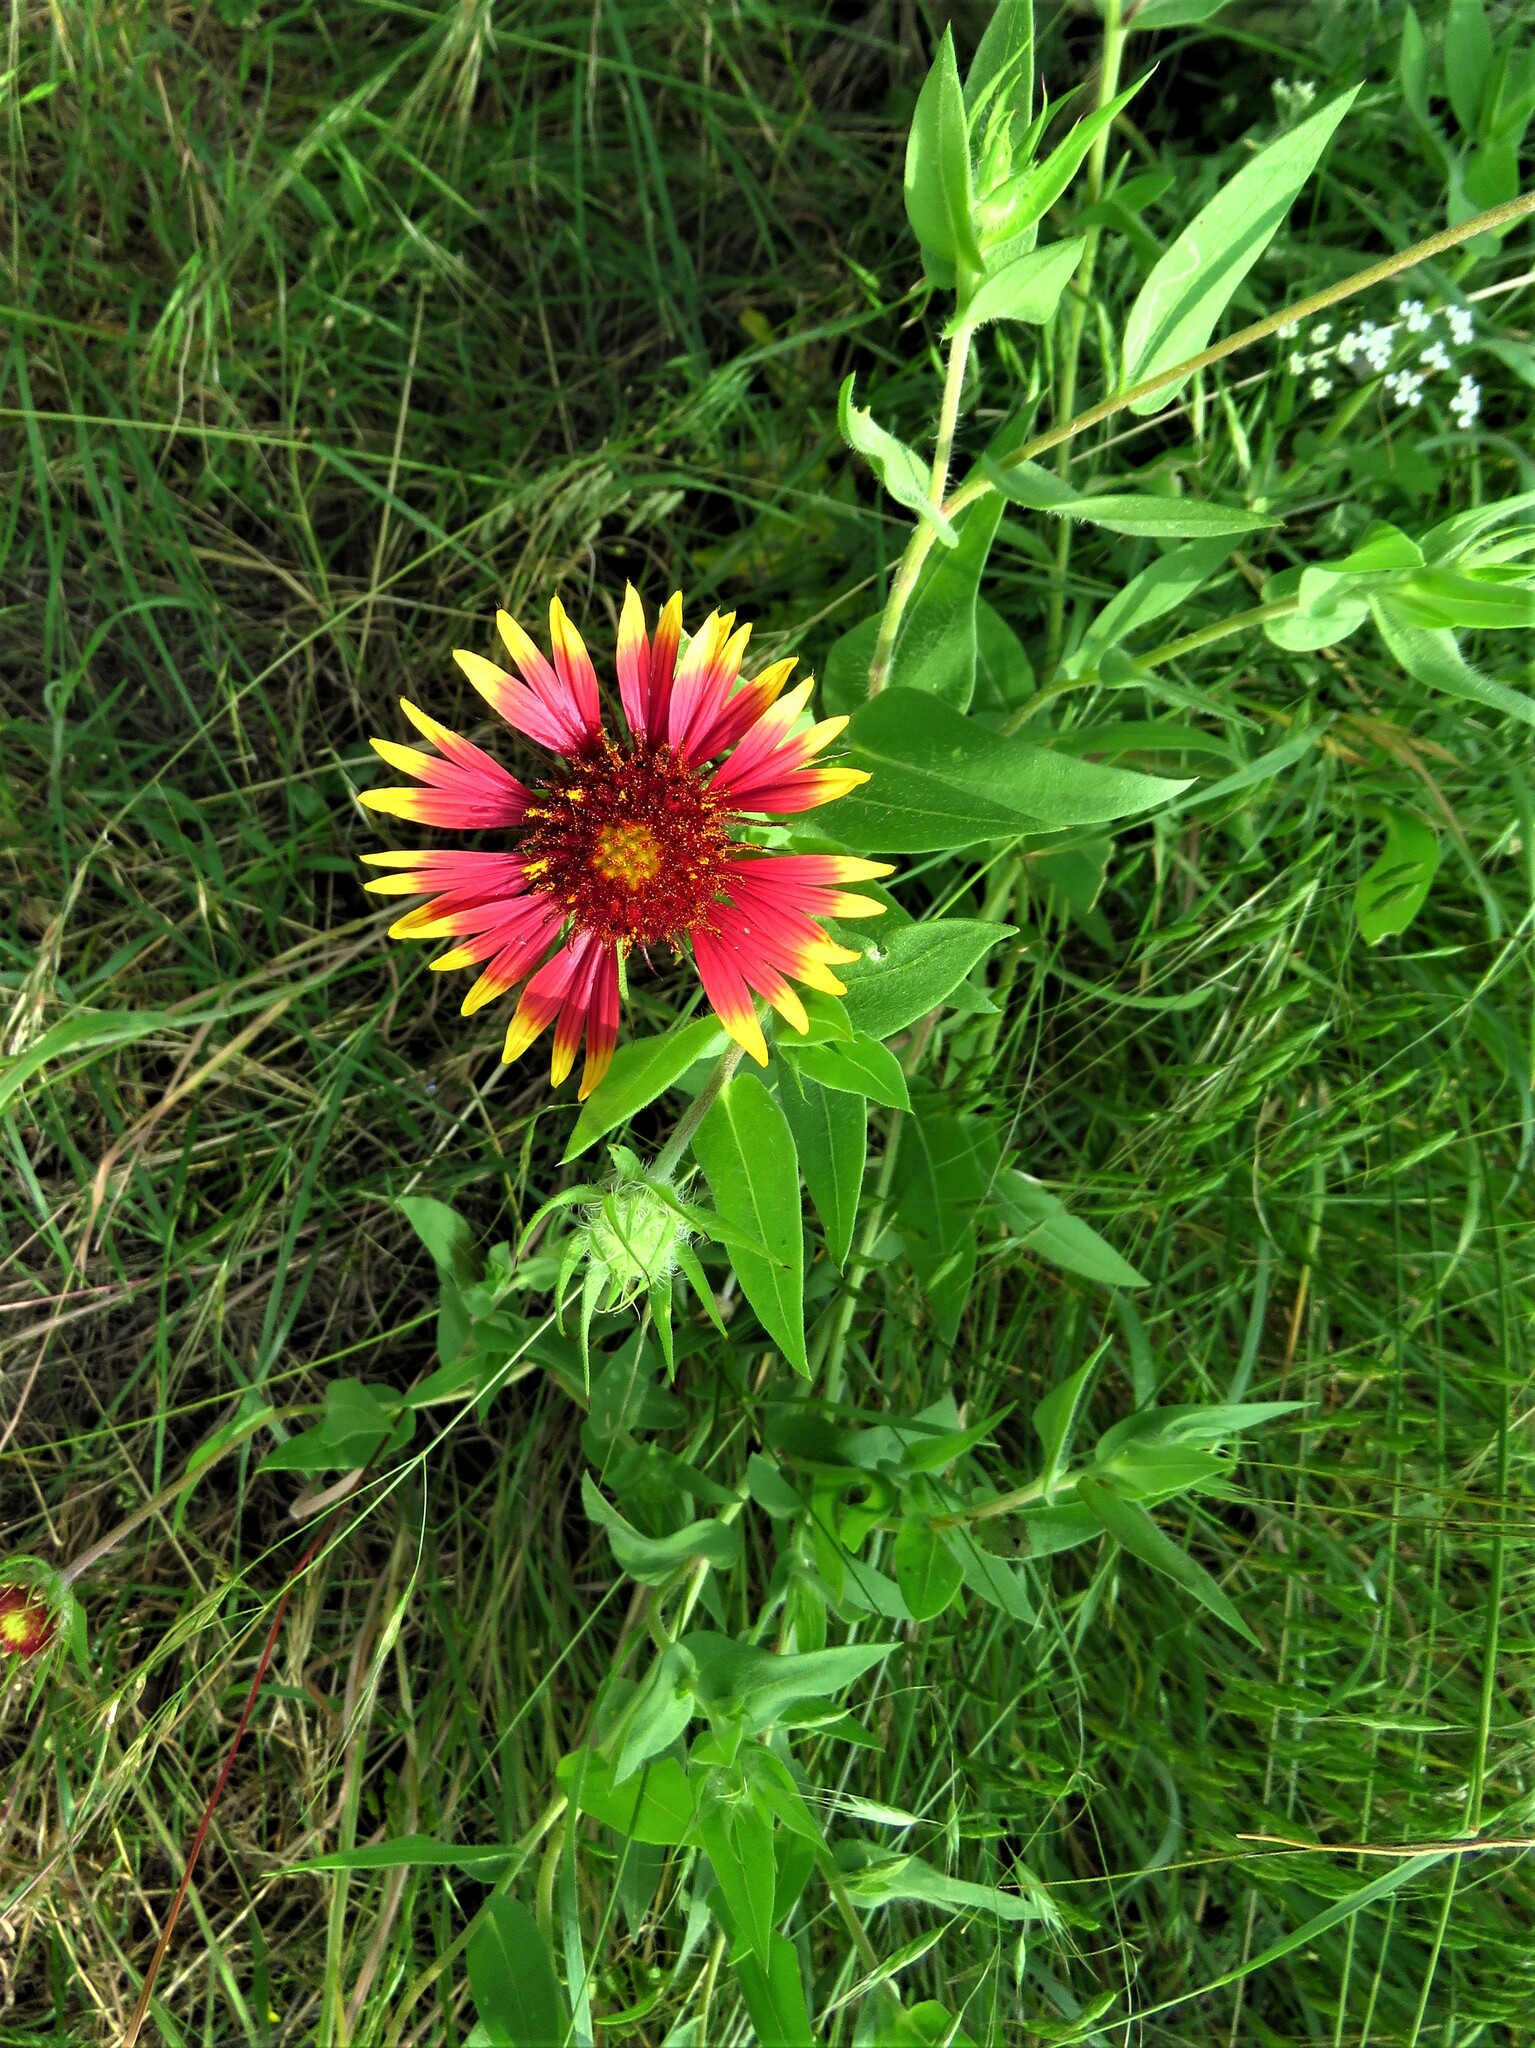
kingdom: Plantae
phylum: Tracheophyta
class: Magnoliopsida
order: Asterales
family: Asteraceae
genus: Gaillardia
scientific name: Gaillardia pulchella
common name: Firewheel
